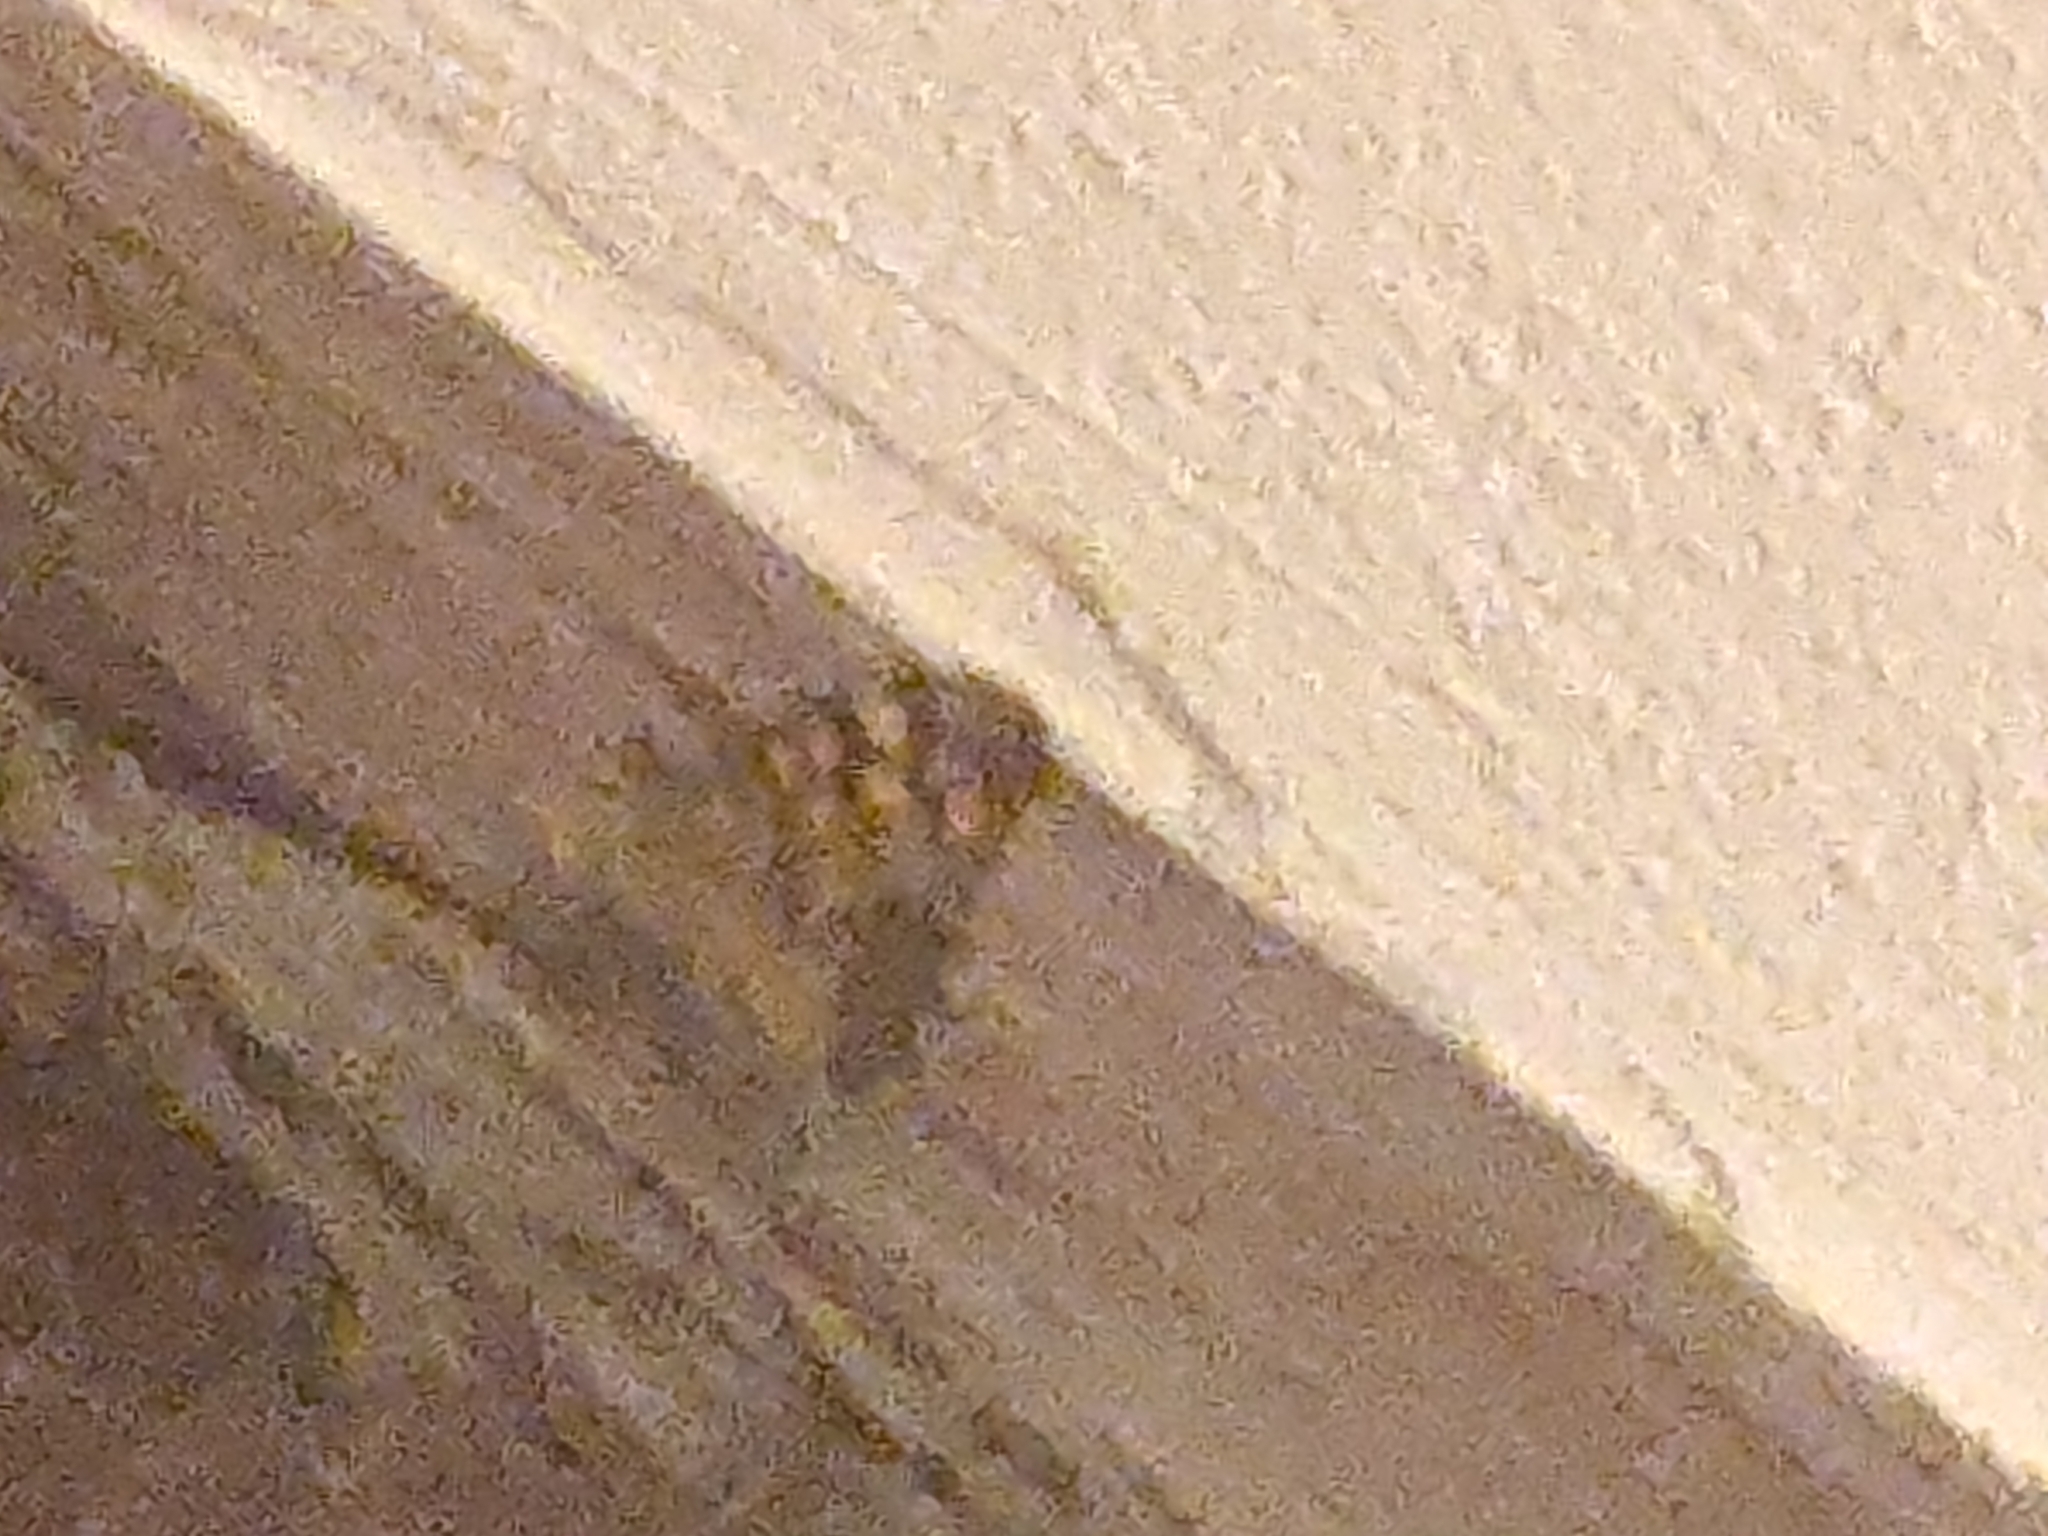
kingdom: Animalia
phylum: Arthropoda
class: Insecta
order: Lepidoptera
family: Nymphalidae
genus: Pararge
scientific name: Pararge aegeria
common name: Speckled wood
